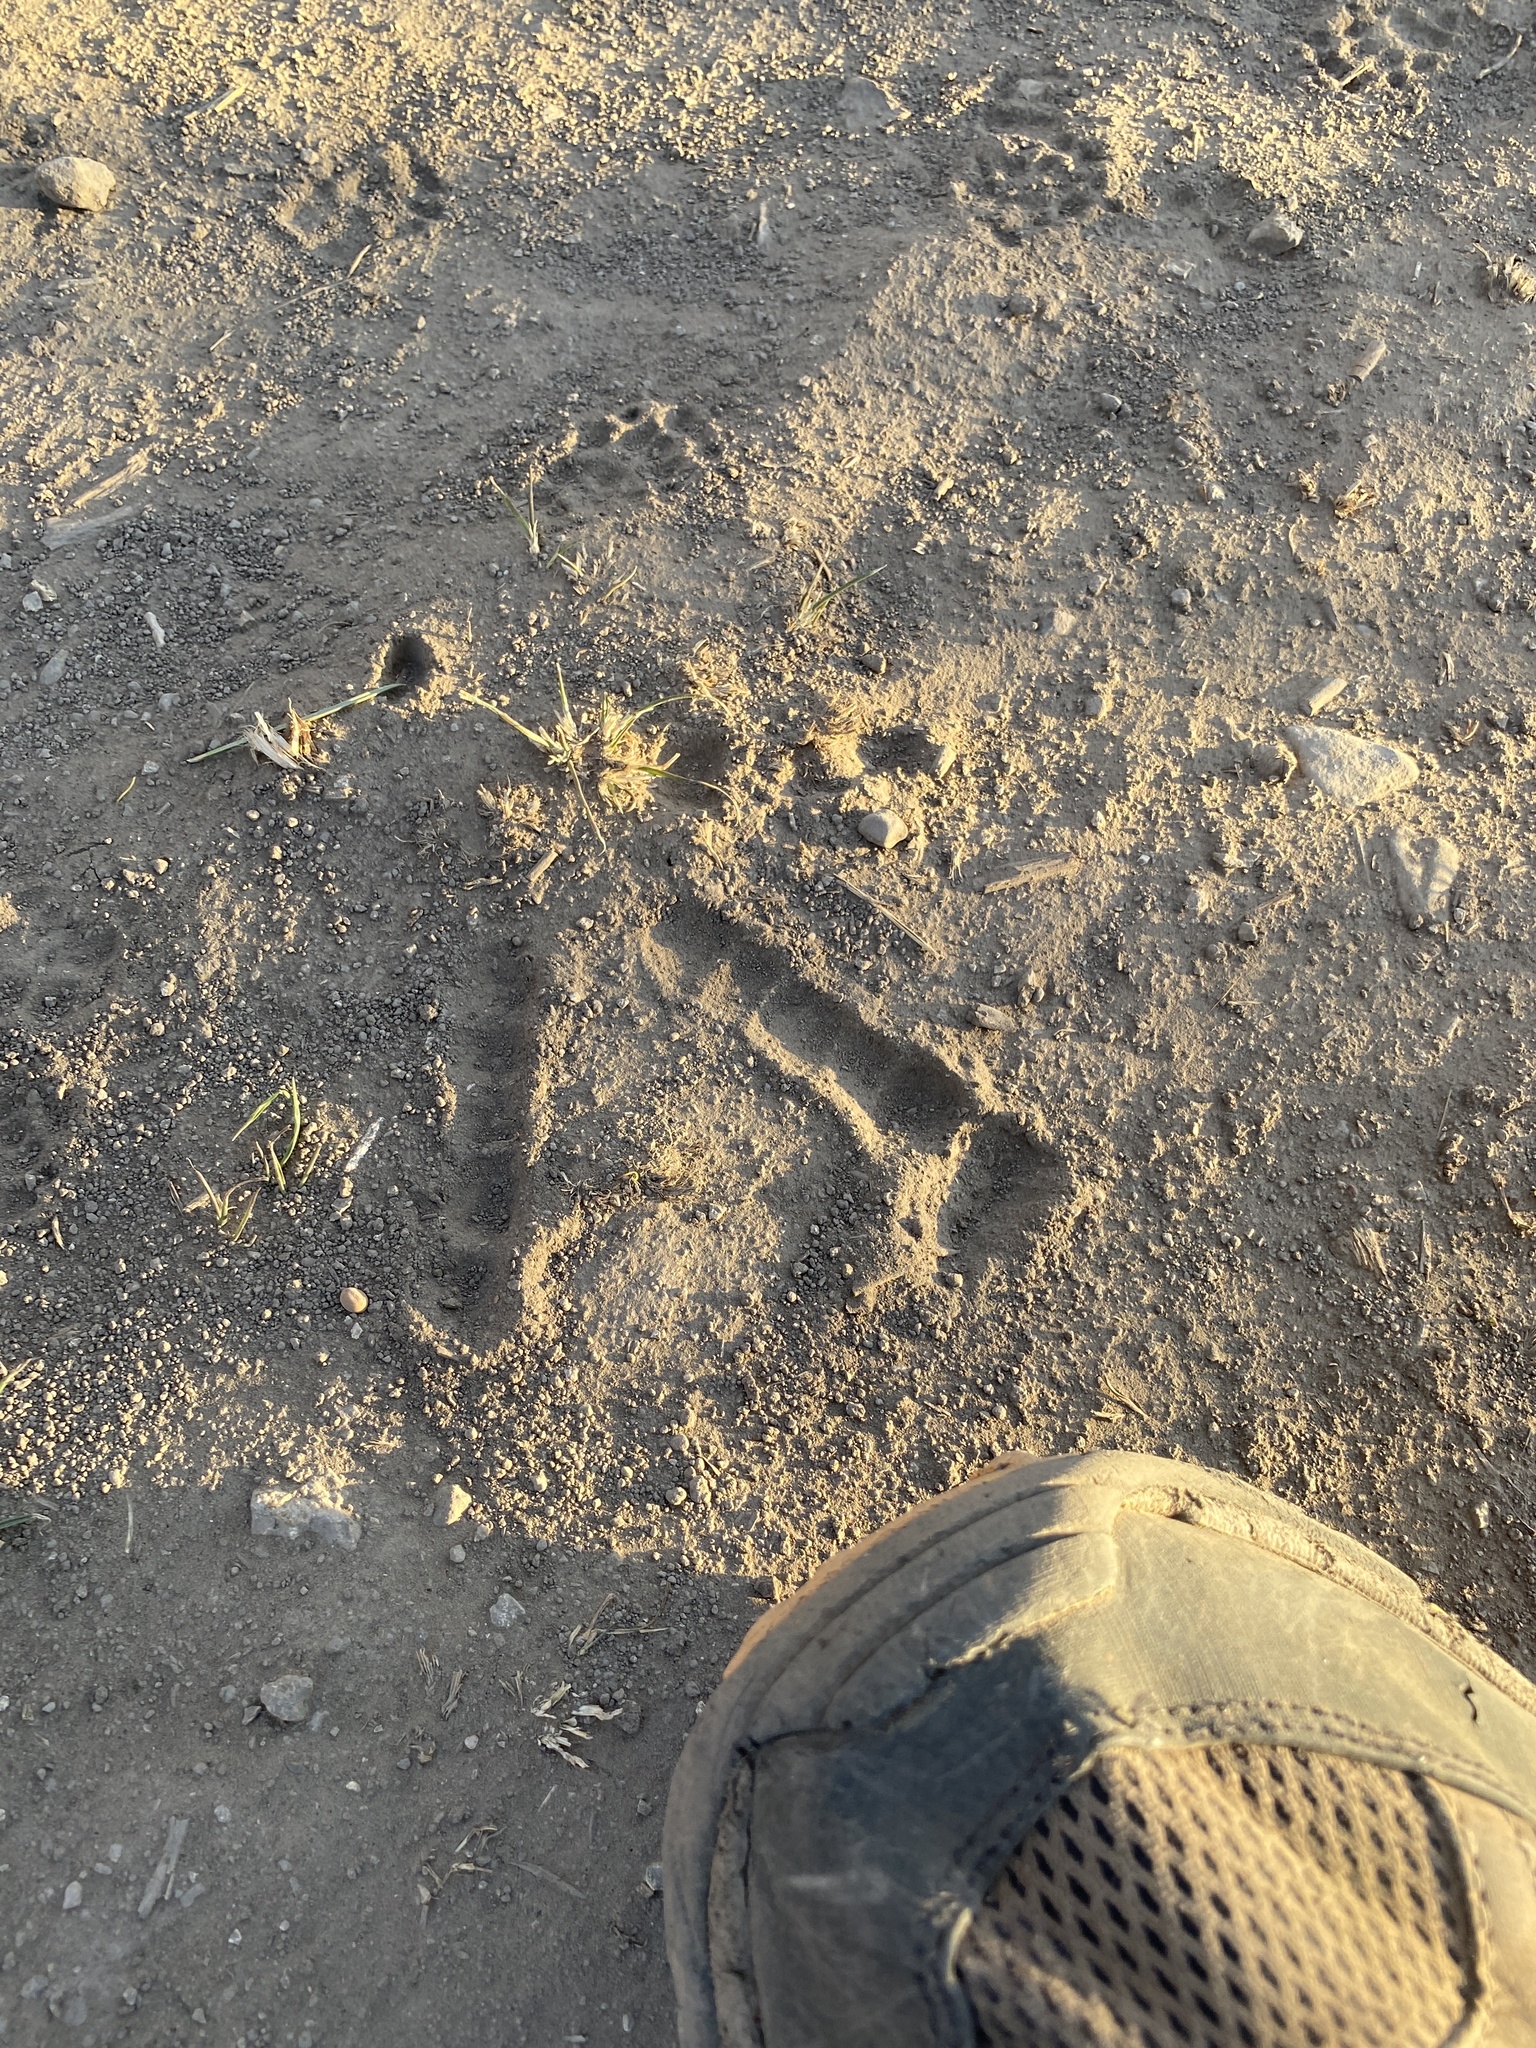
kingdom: Animalia
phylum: Chordata
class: Aves
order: Galliformes
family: Phasianidae
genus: Meleagris
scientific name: Meleagris gallopavo
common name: Wild turkey
